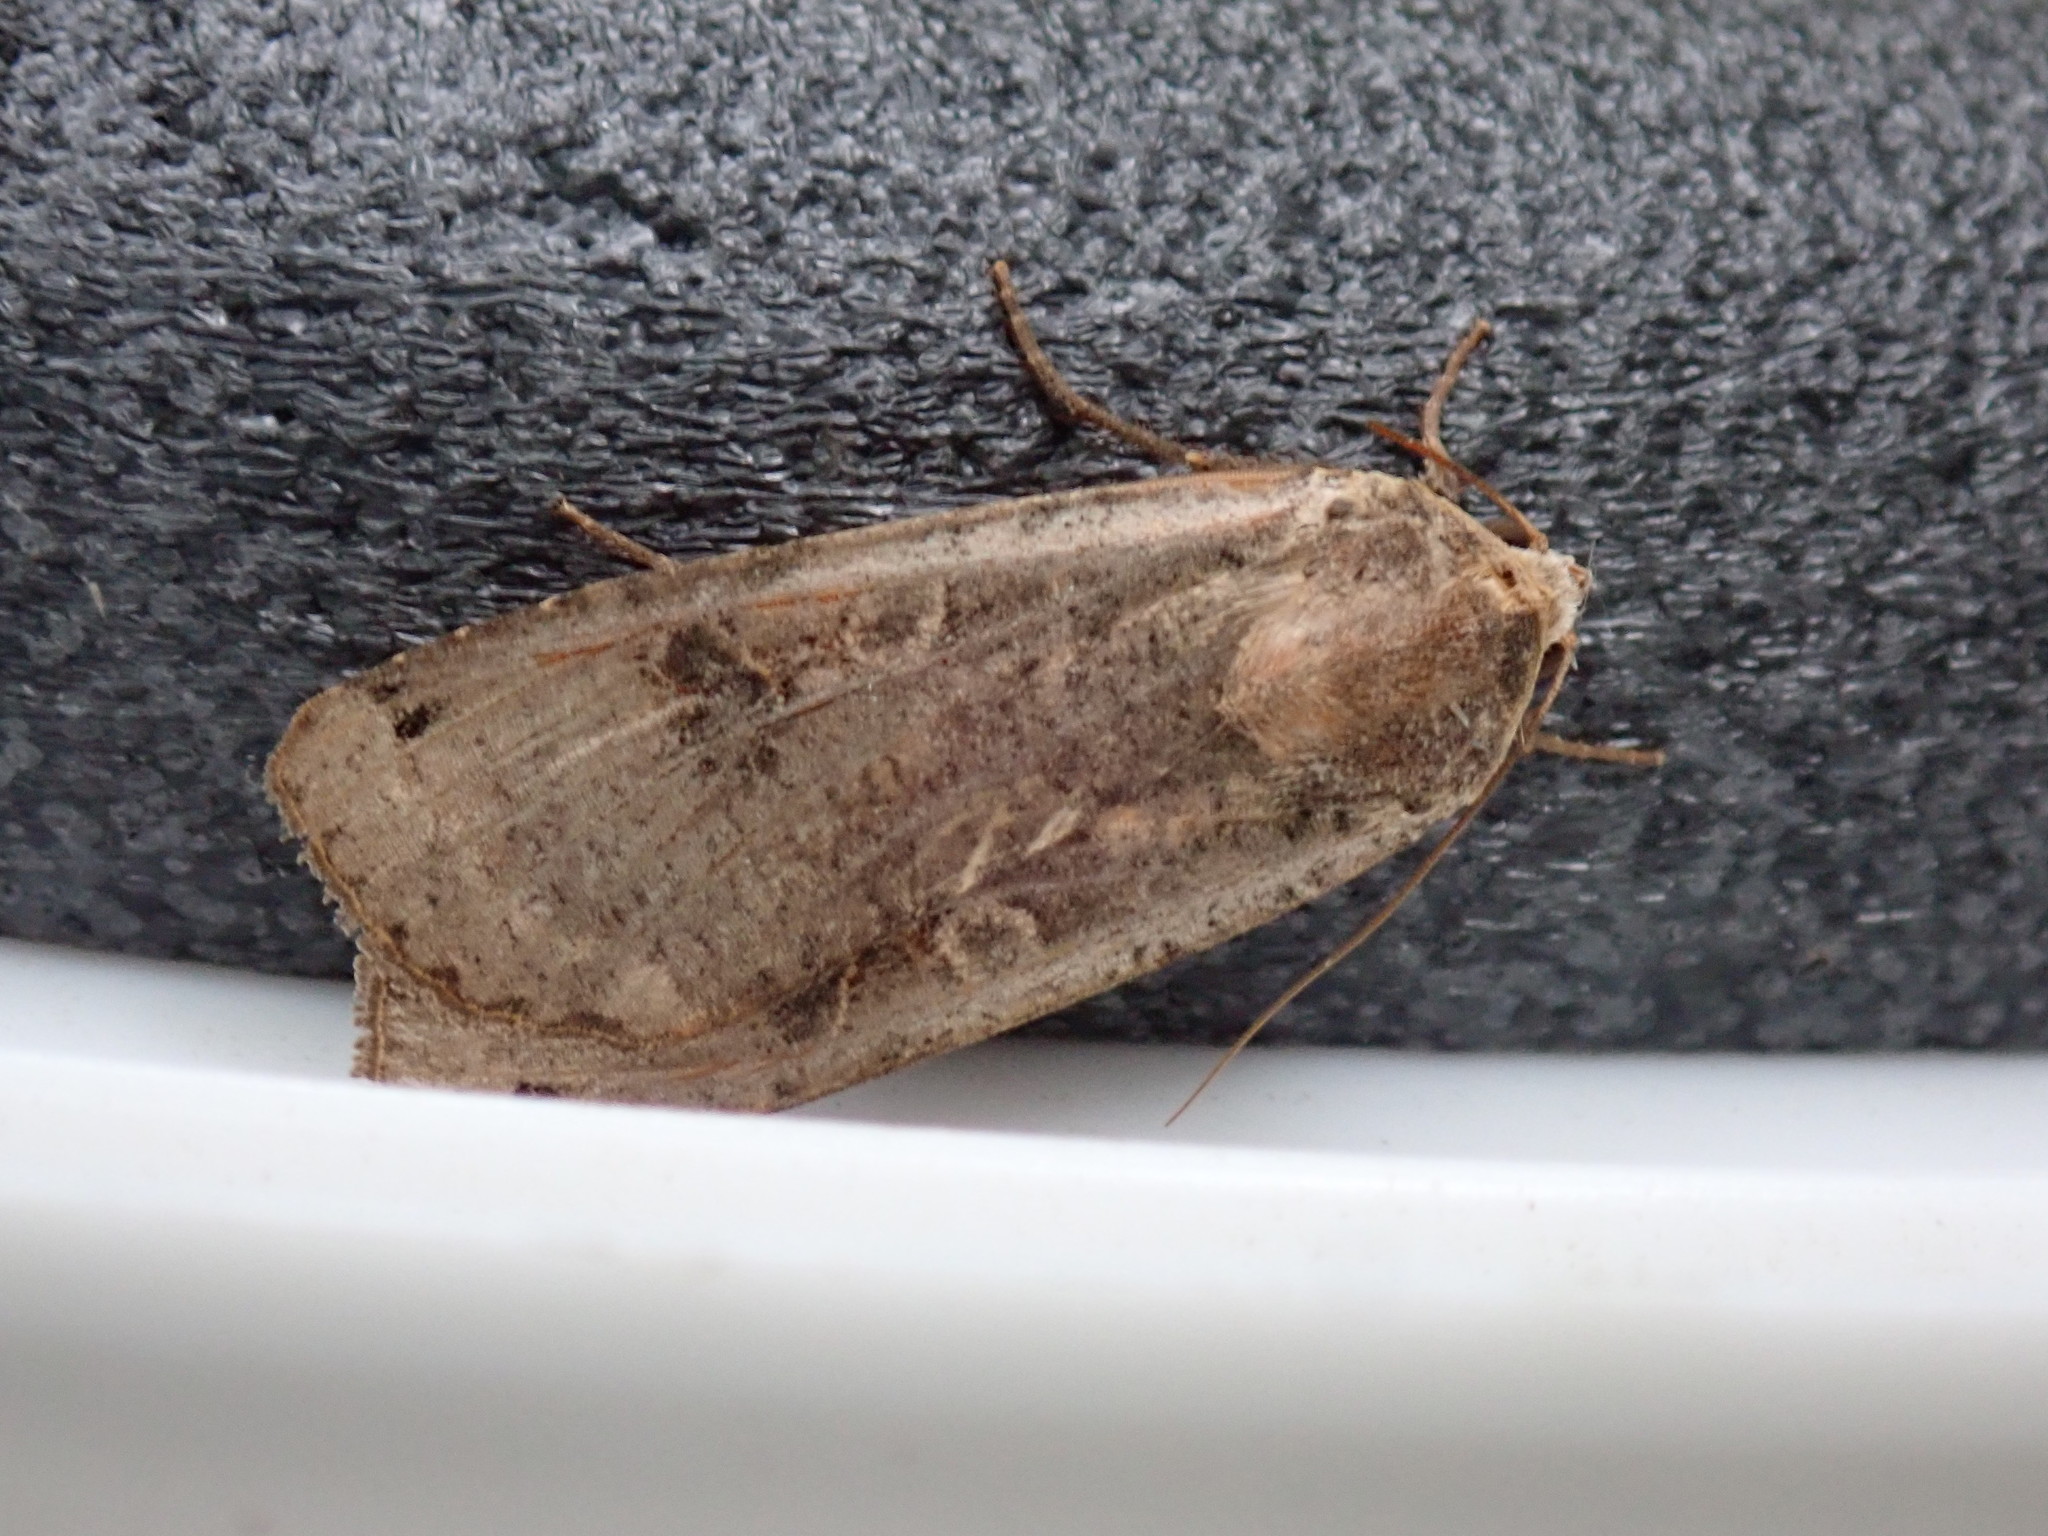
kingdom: Animalia
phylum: Arthropoda
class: Insecta
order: Lepidoptera
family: Noctuidae
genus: Noctua
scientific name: Noctua pronuba
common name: Large yellow underwing
